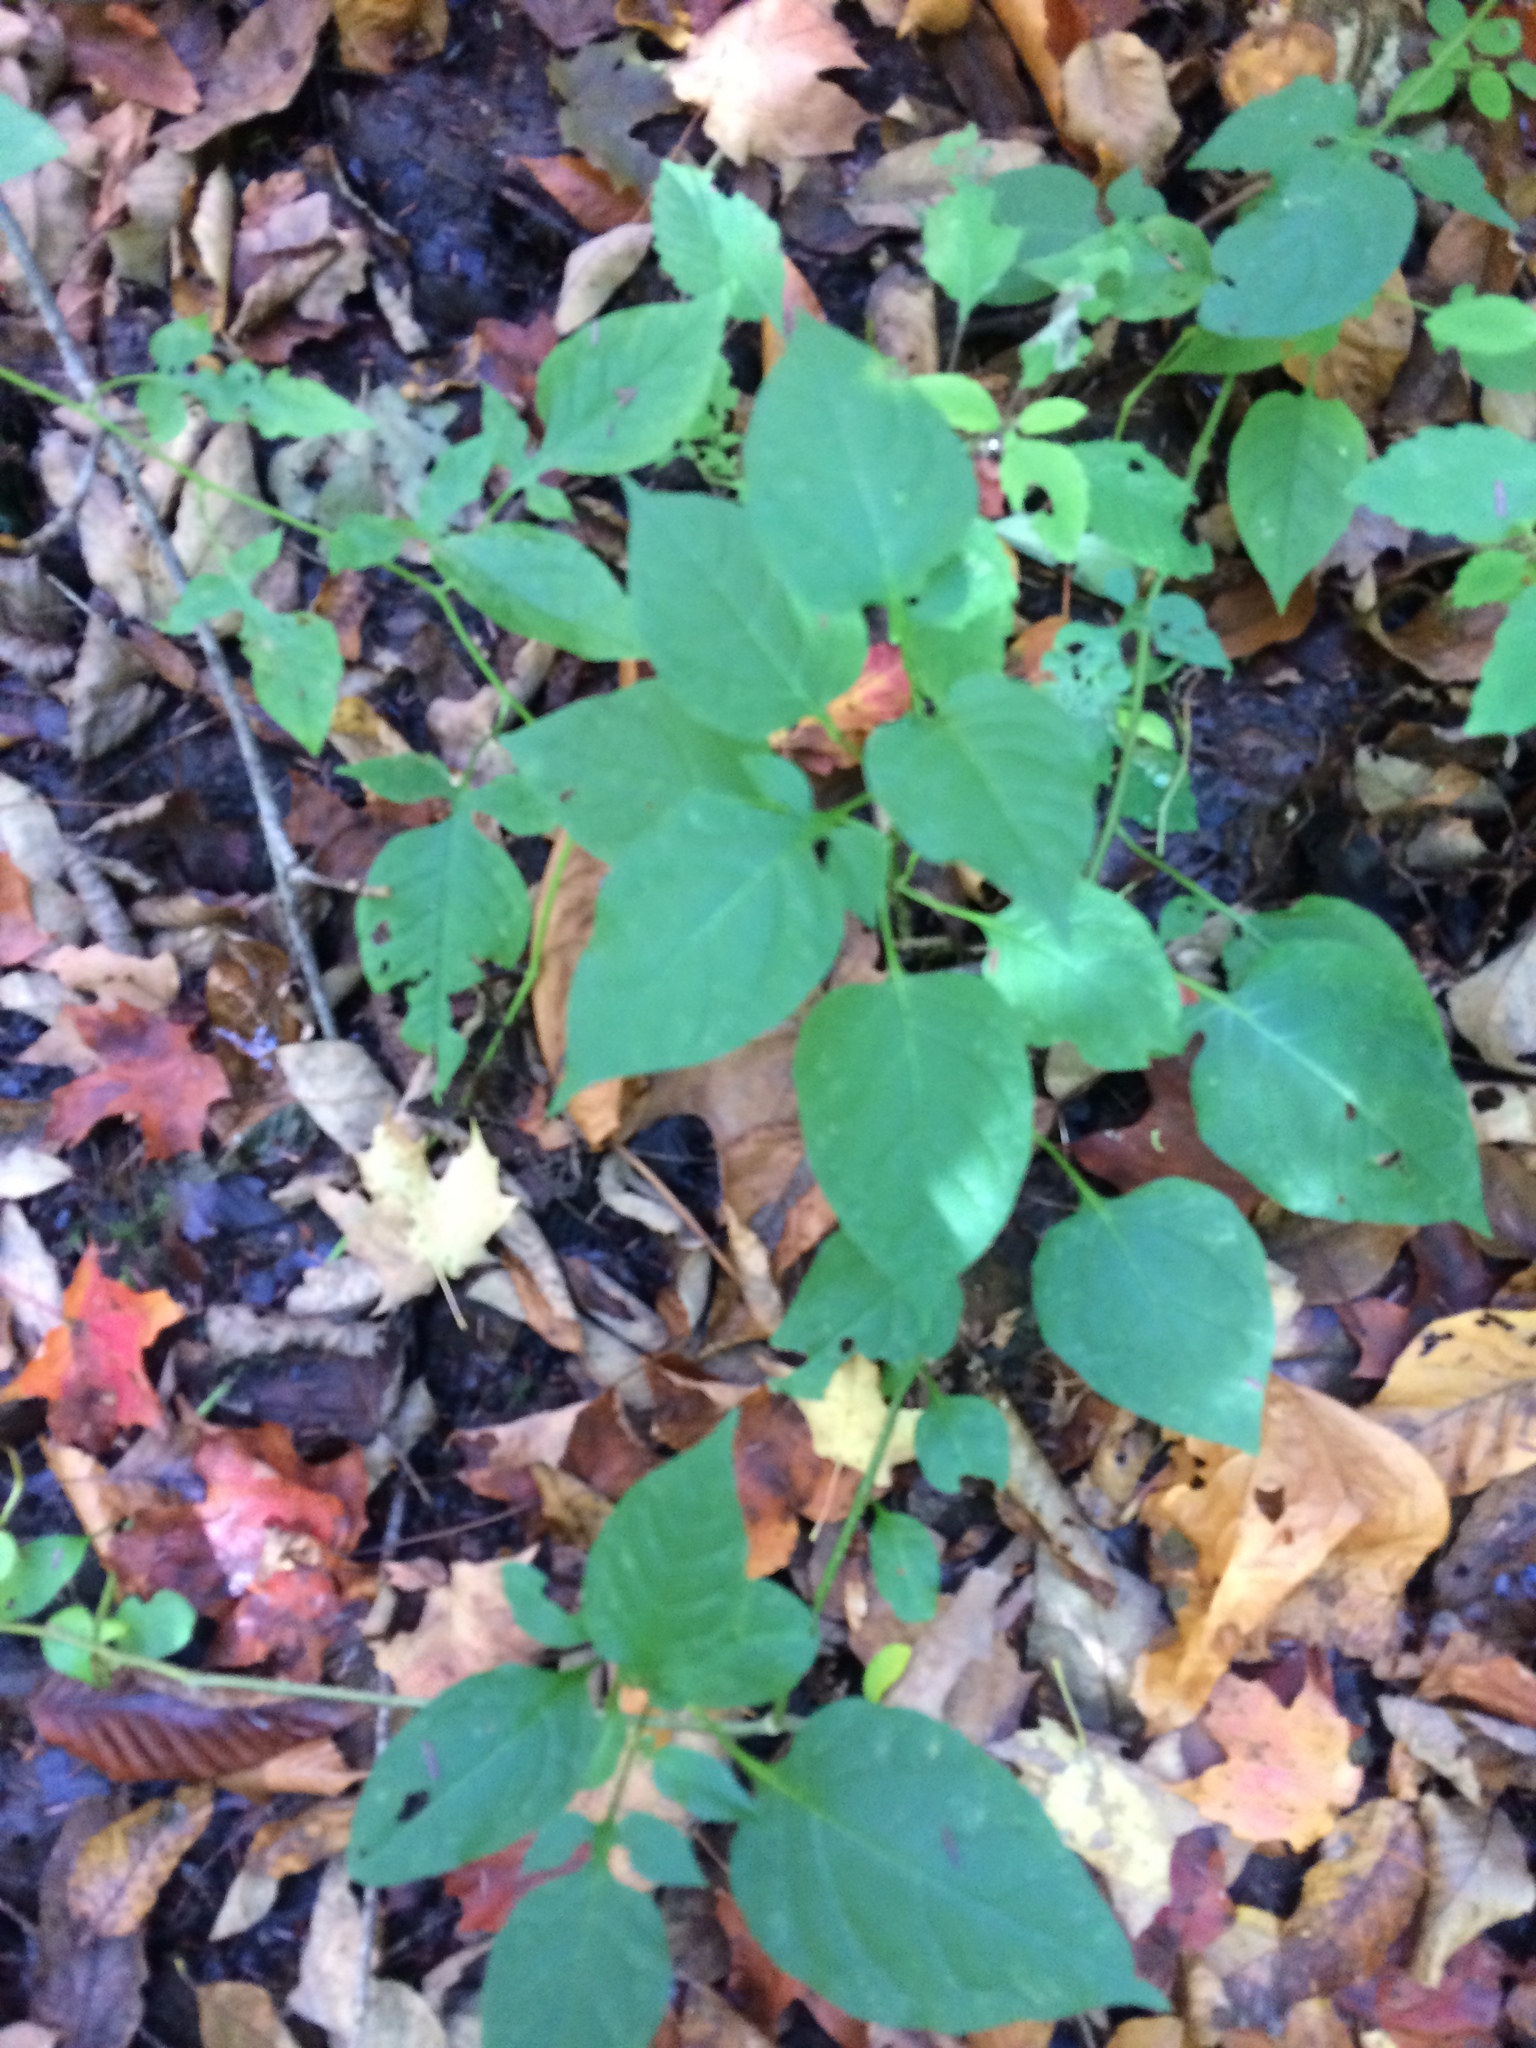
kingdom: Plantae
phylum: Tracheophyta
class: Magnoliopsida
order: Solanales
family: Solanaceae
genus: Solanum
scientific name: Solanum dulcamara
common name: Climbing nightshade
